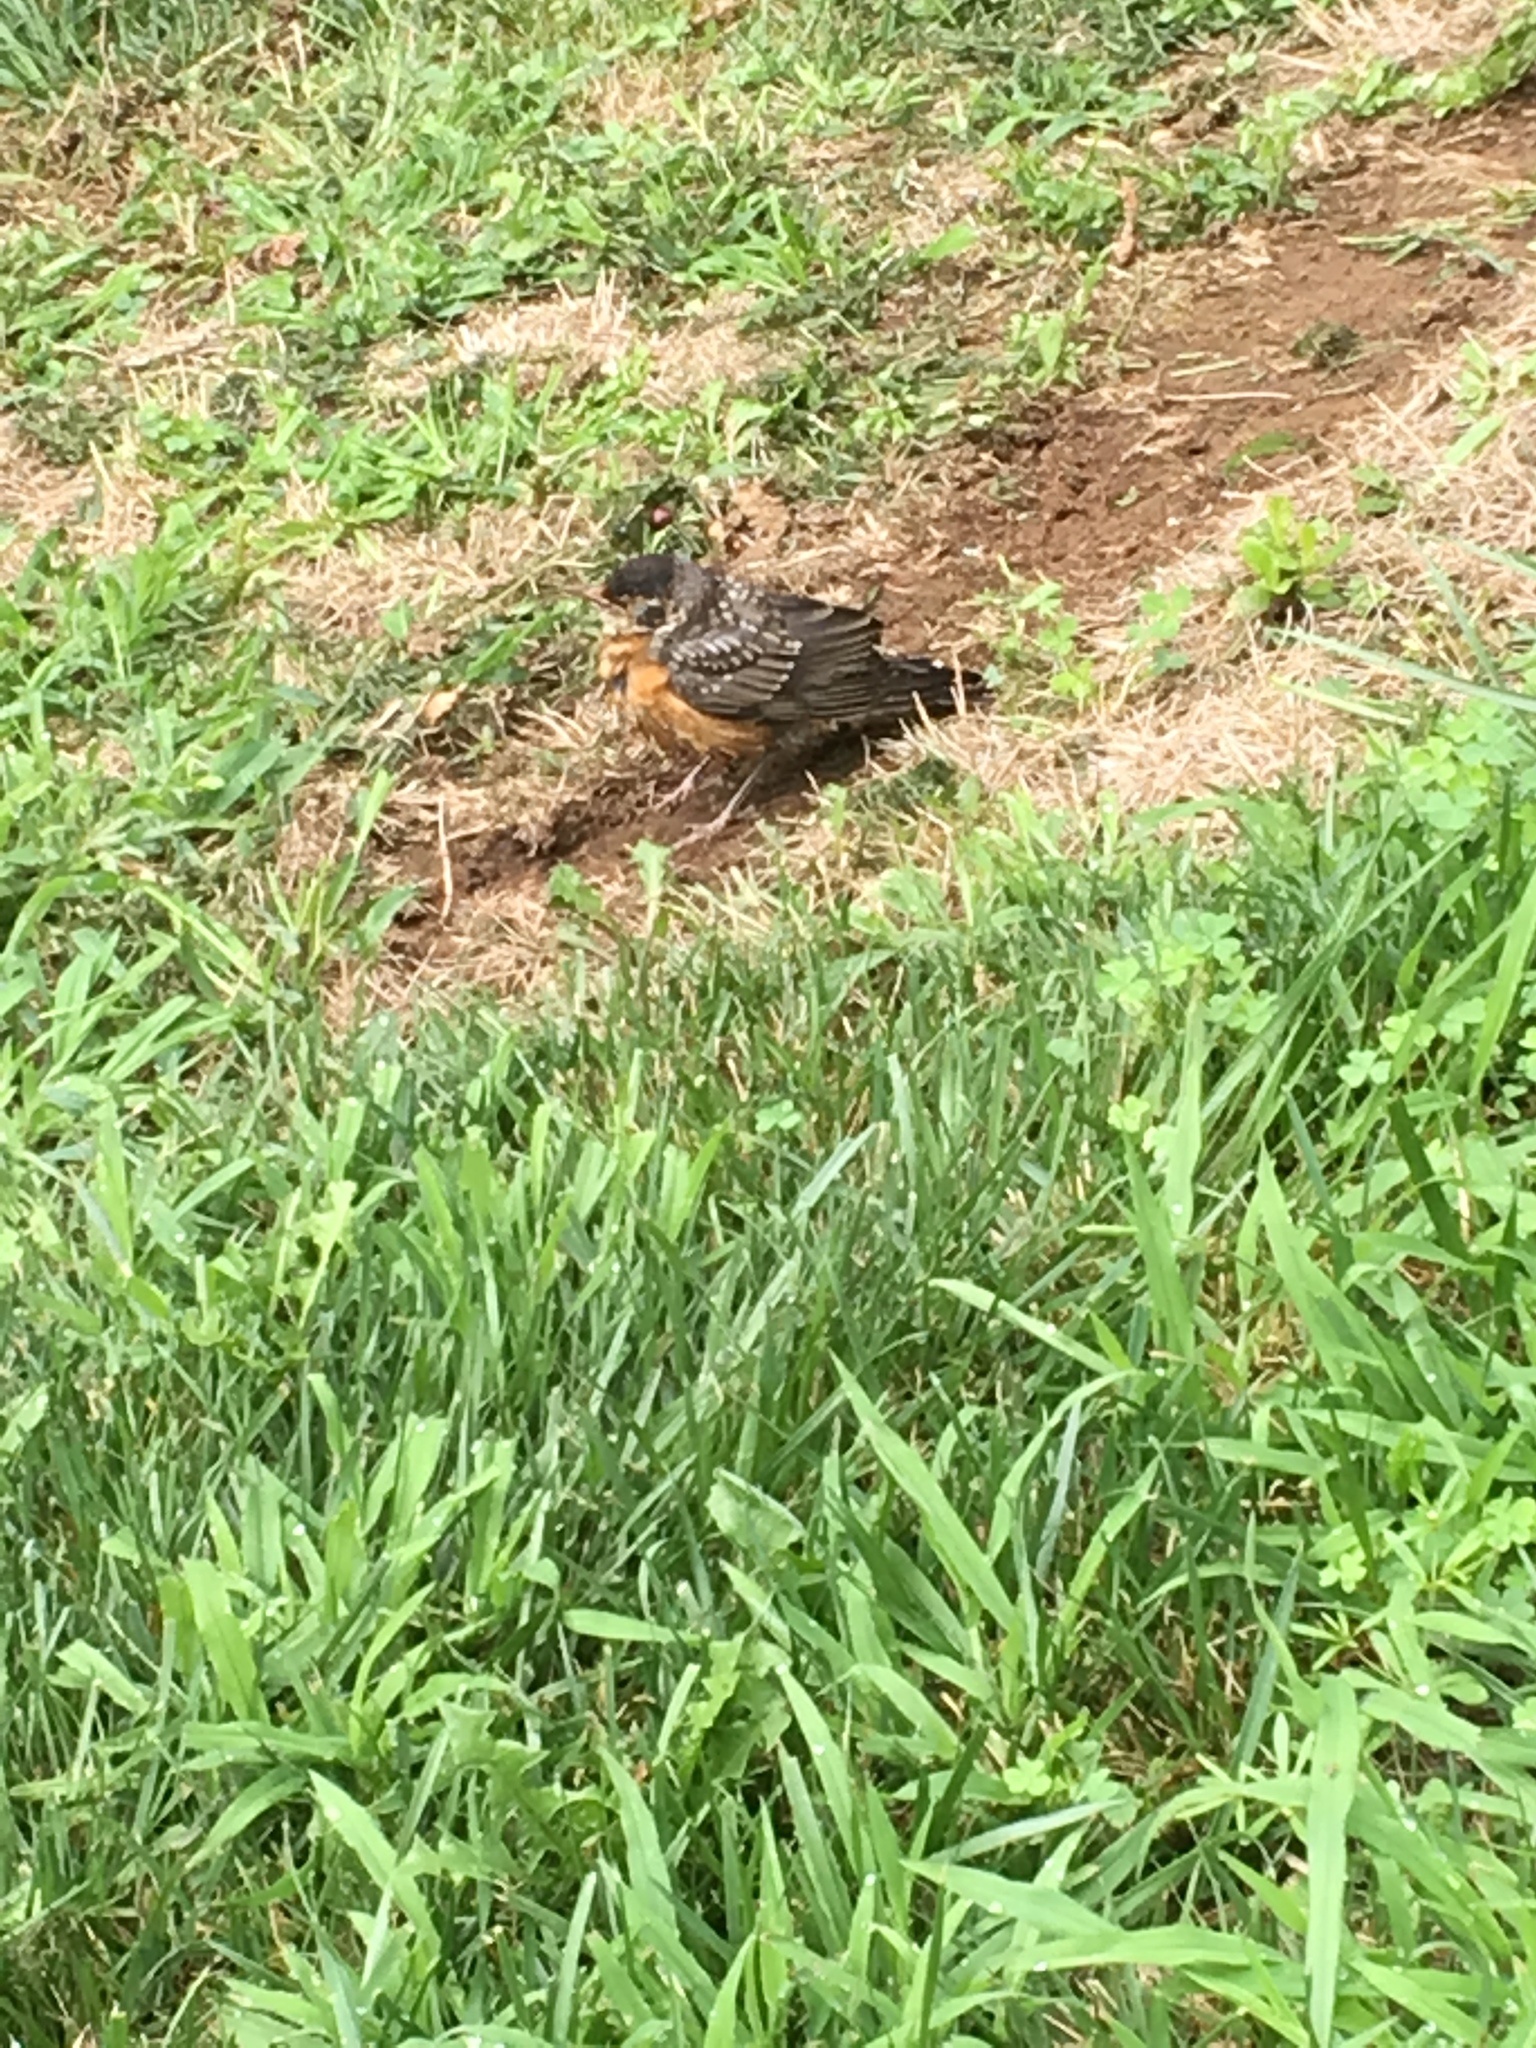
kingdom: Animalia
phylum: Chordata
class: Aves
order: Passeriformes
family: Turdidae
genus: Turdus
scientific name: Turdus migratorius
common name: American robin
